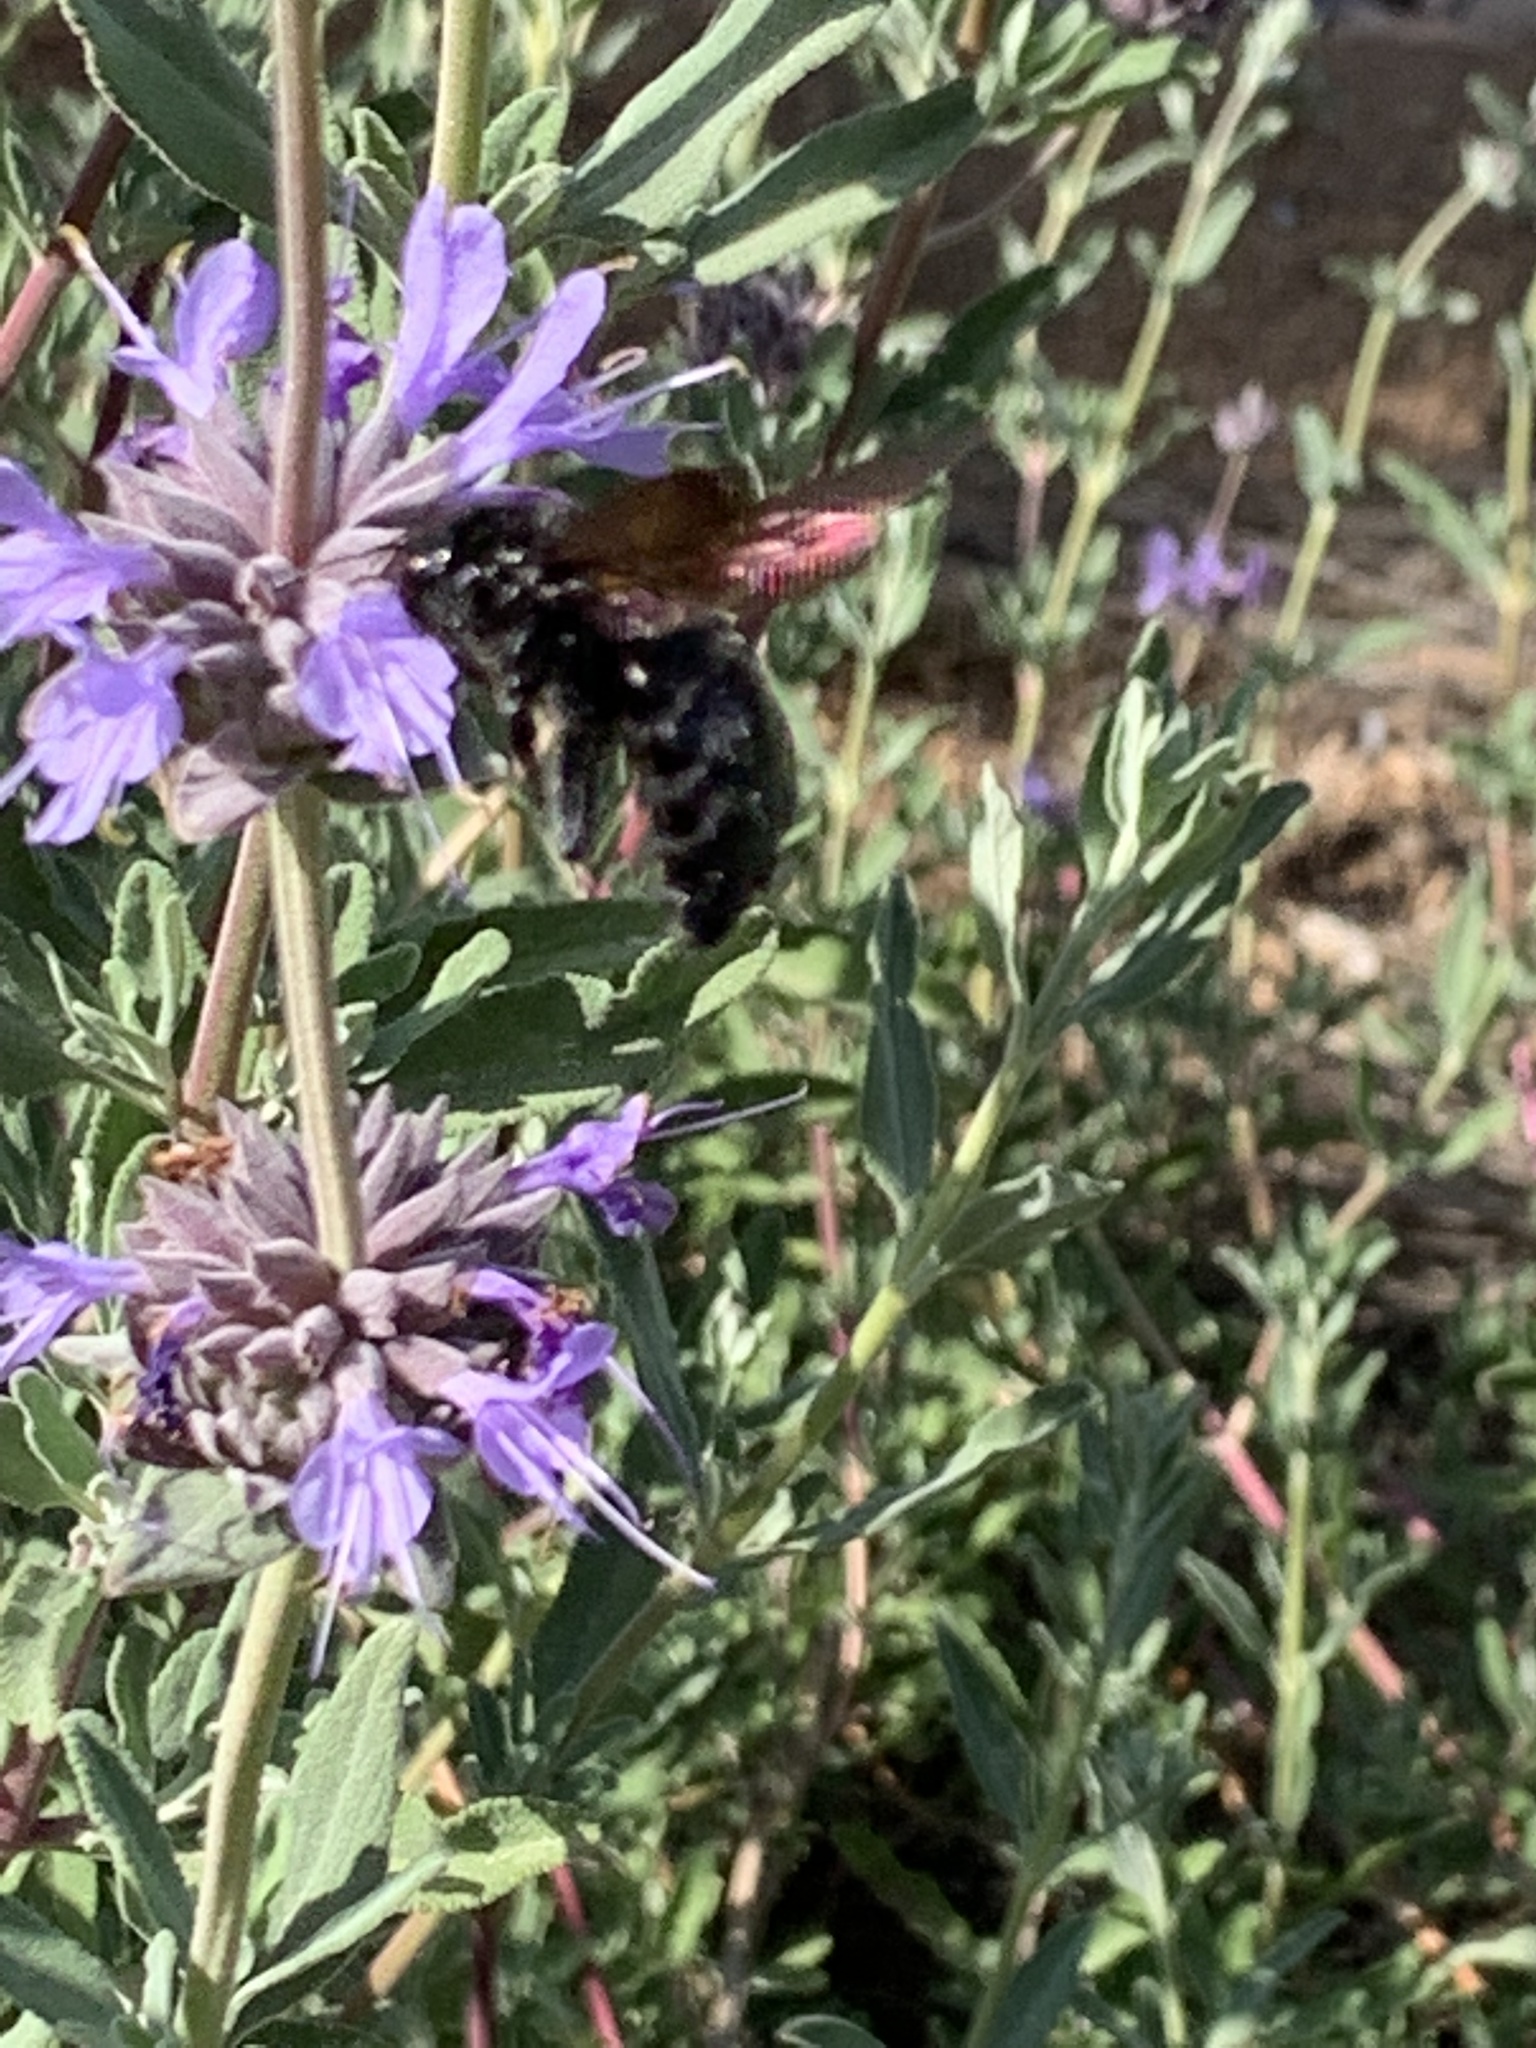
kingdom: Animalia
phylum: Arthropoda
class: Insecta
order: Hymenoptera
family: Apidae
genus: Xylocopa
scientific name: Xylocopa sonorina
